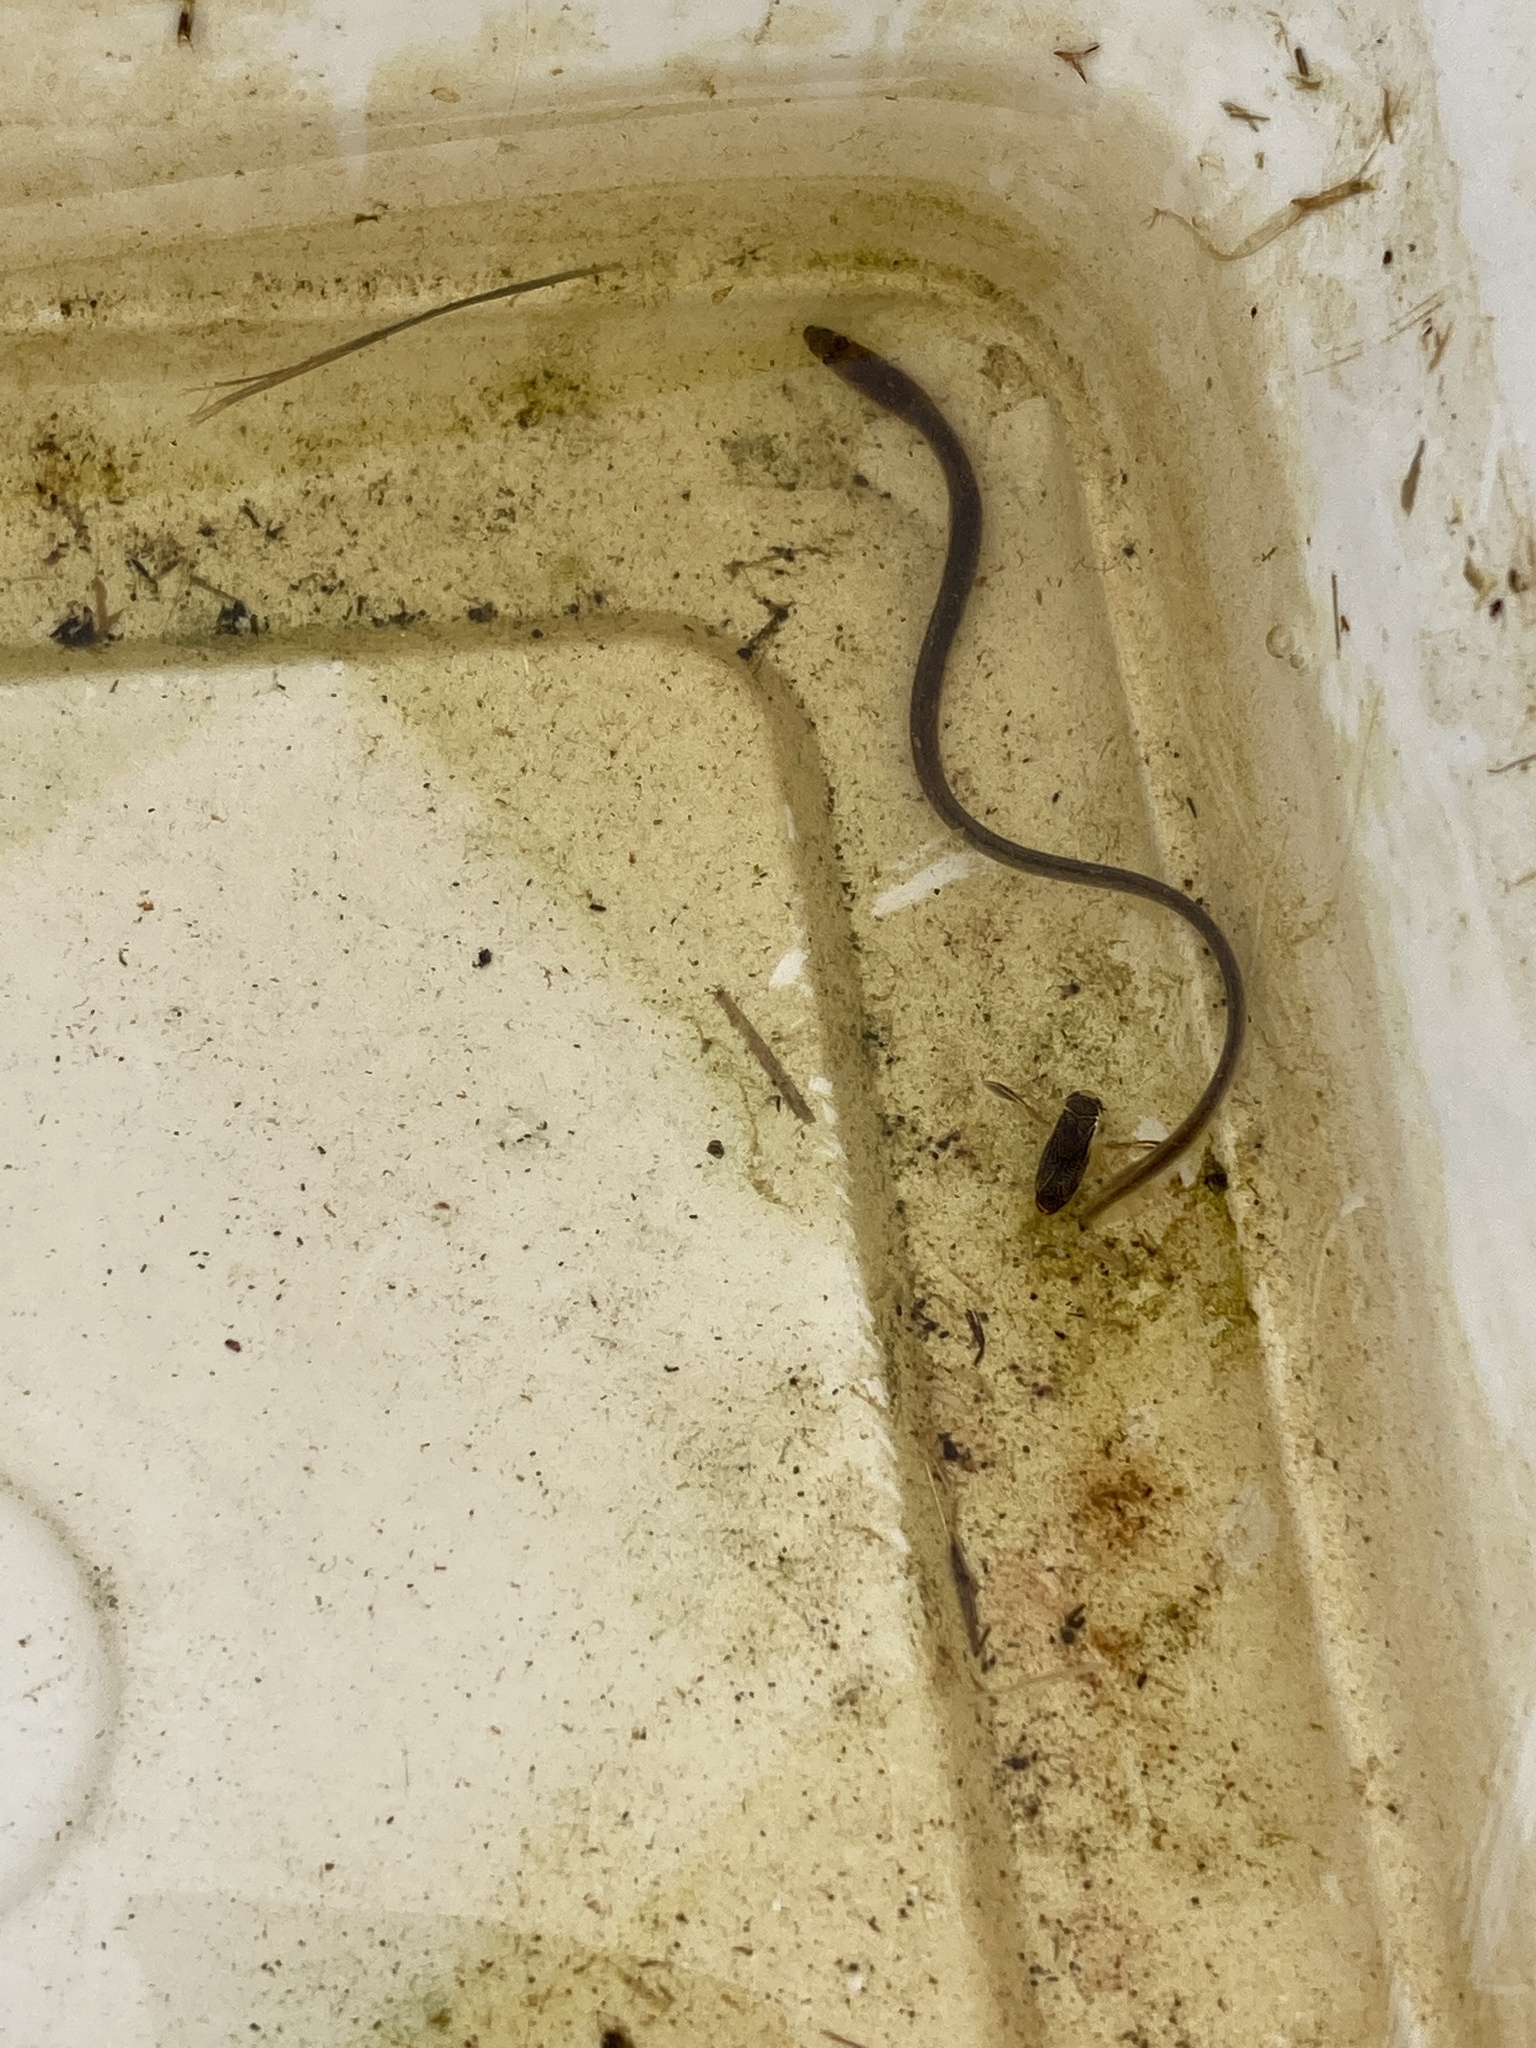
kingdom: Animalia
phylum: Chordata
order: Anguilliformes
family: Anguillidae
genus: Anguilla
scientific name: Anguilla anguilla
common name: European eel
